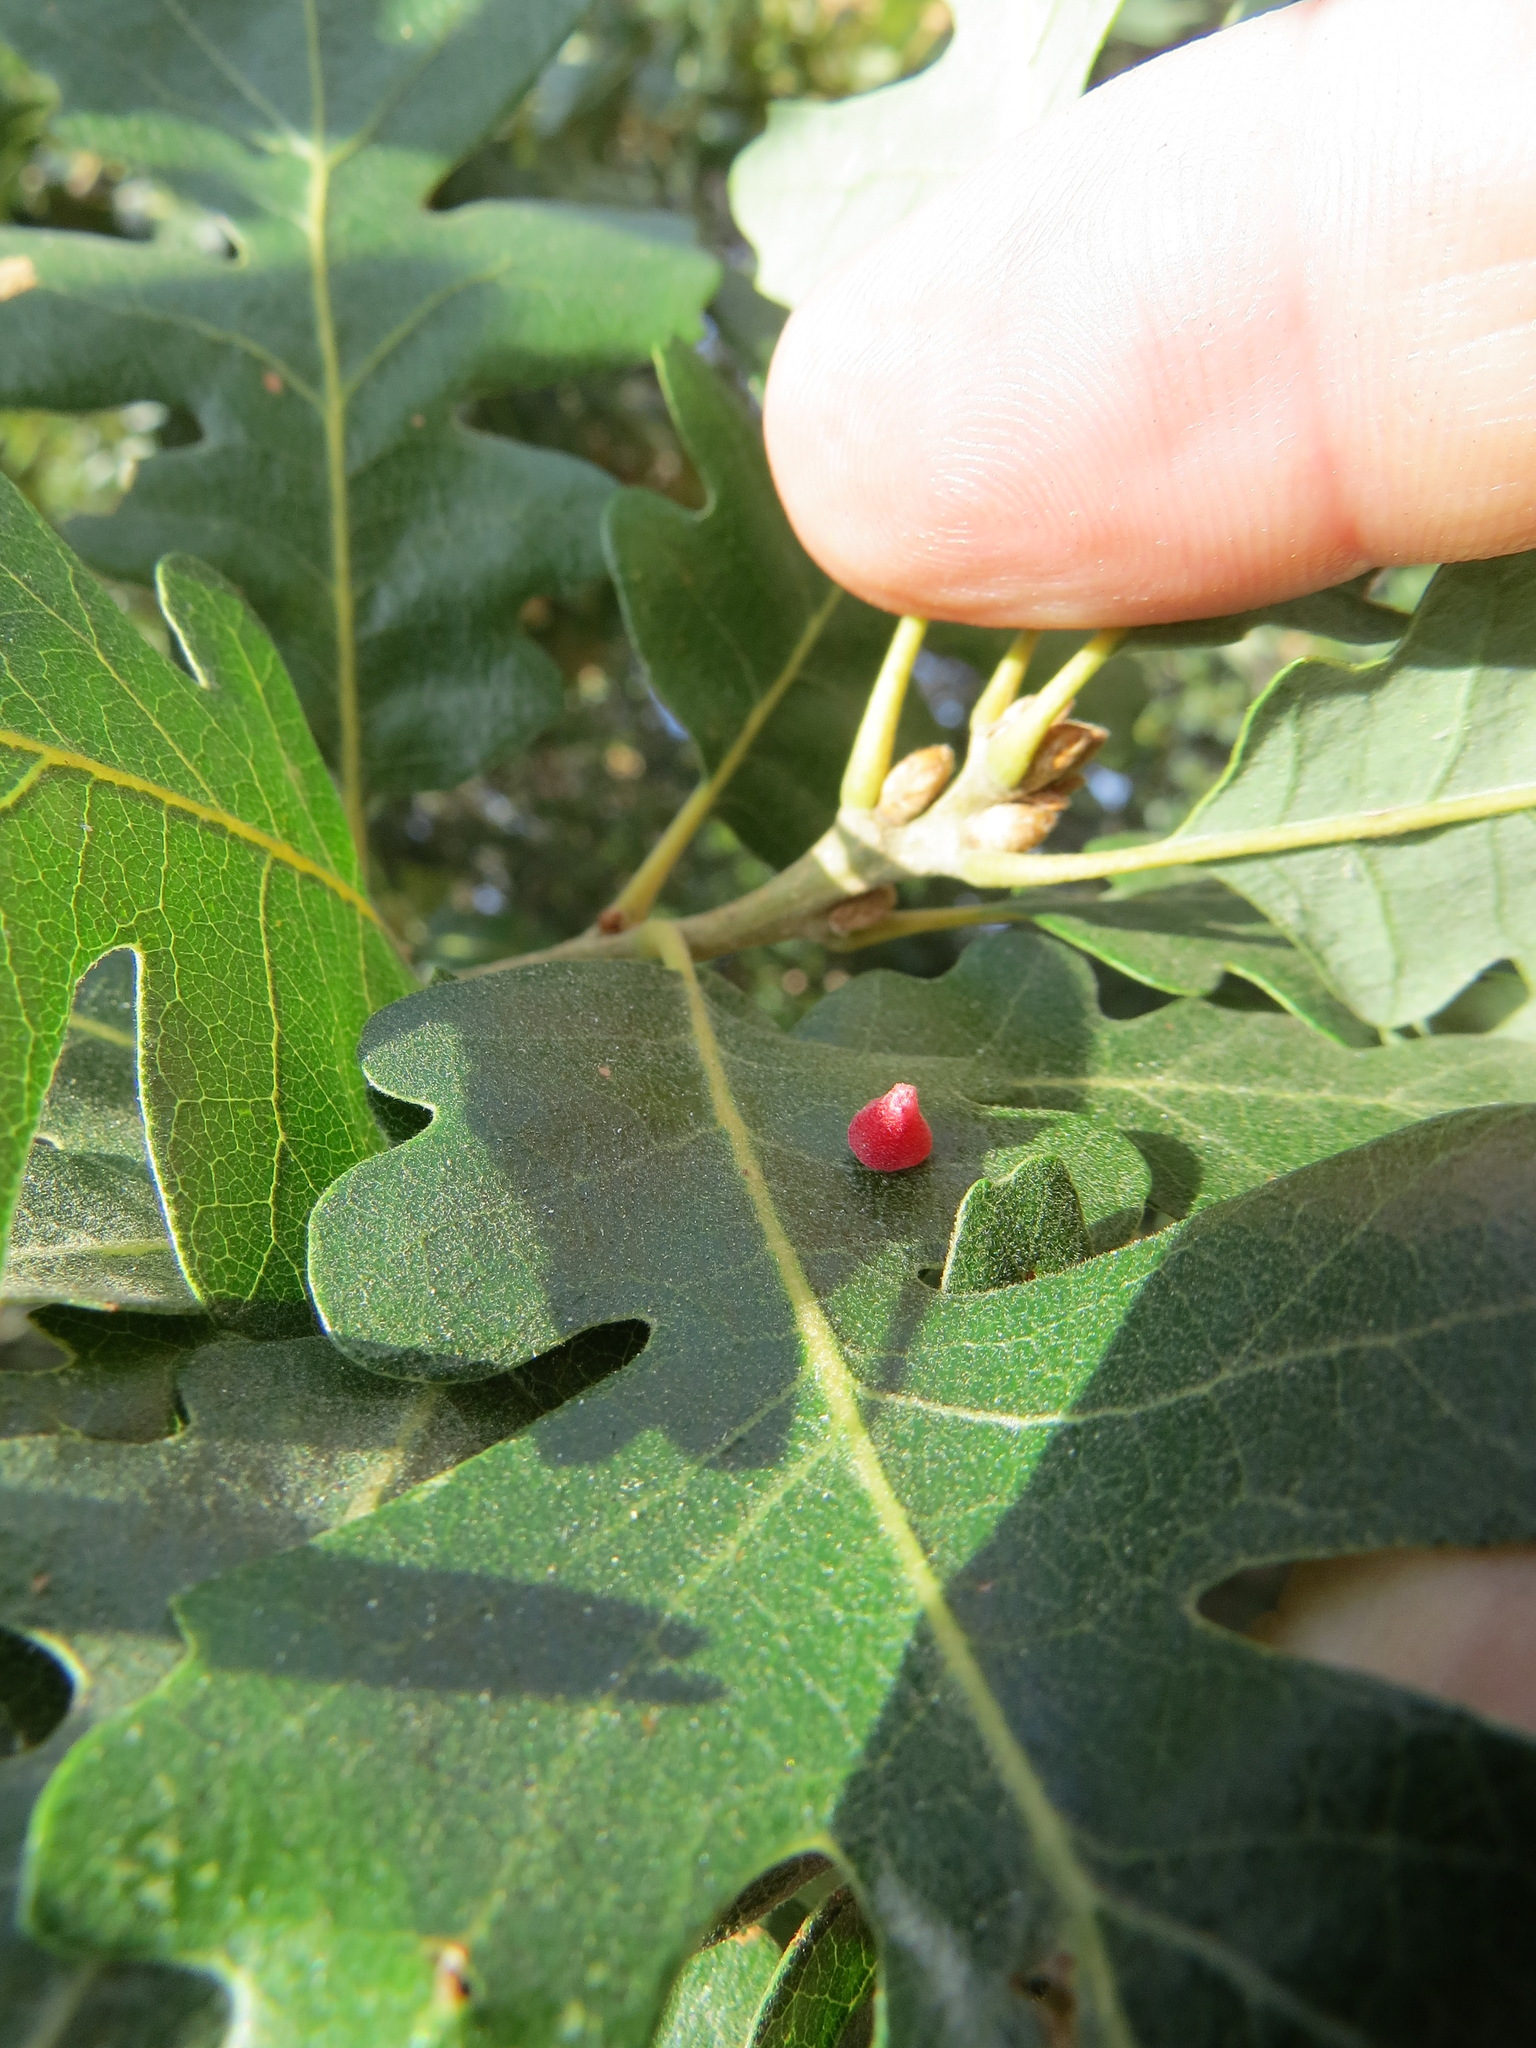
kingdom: Animalia
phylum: Arthropoda
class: Insecta
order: Hymenoptera
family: Cynipidae
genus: Andricus
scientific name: Andricus
